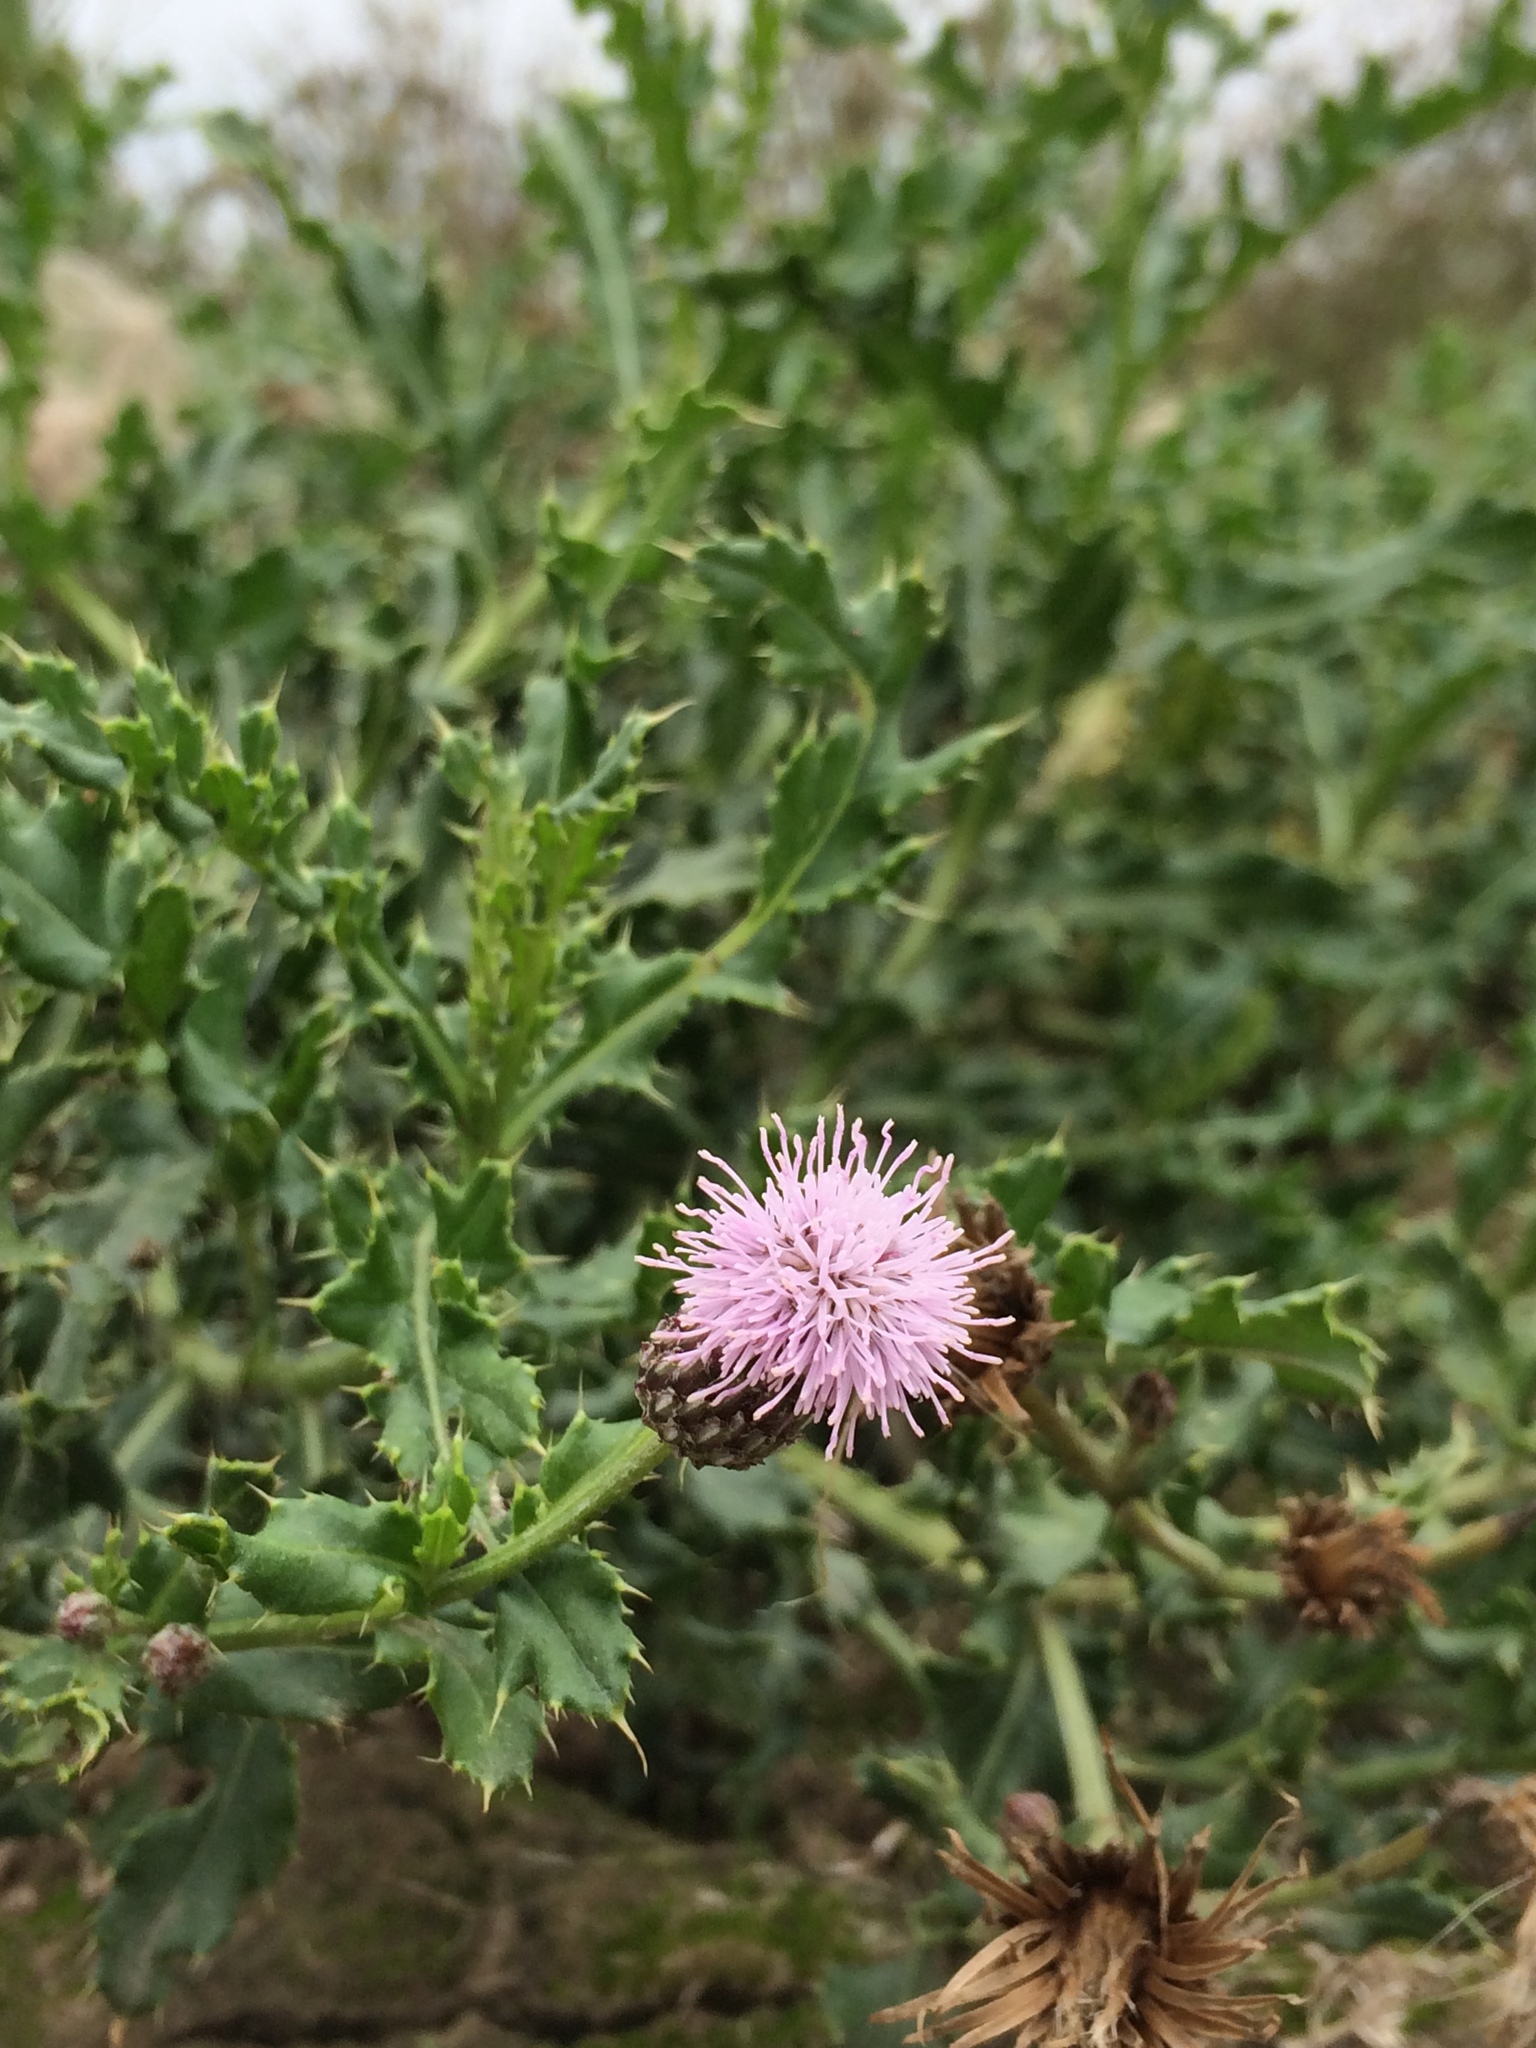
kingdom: Plantae
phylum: Tracheophyta
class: Magnoliopsida
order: Asterales
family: Asteraceae
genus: Cirsium
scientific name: Cirsium arvense
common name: Creeping thistle
